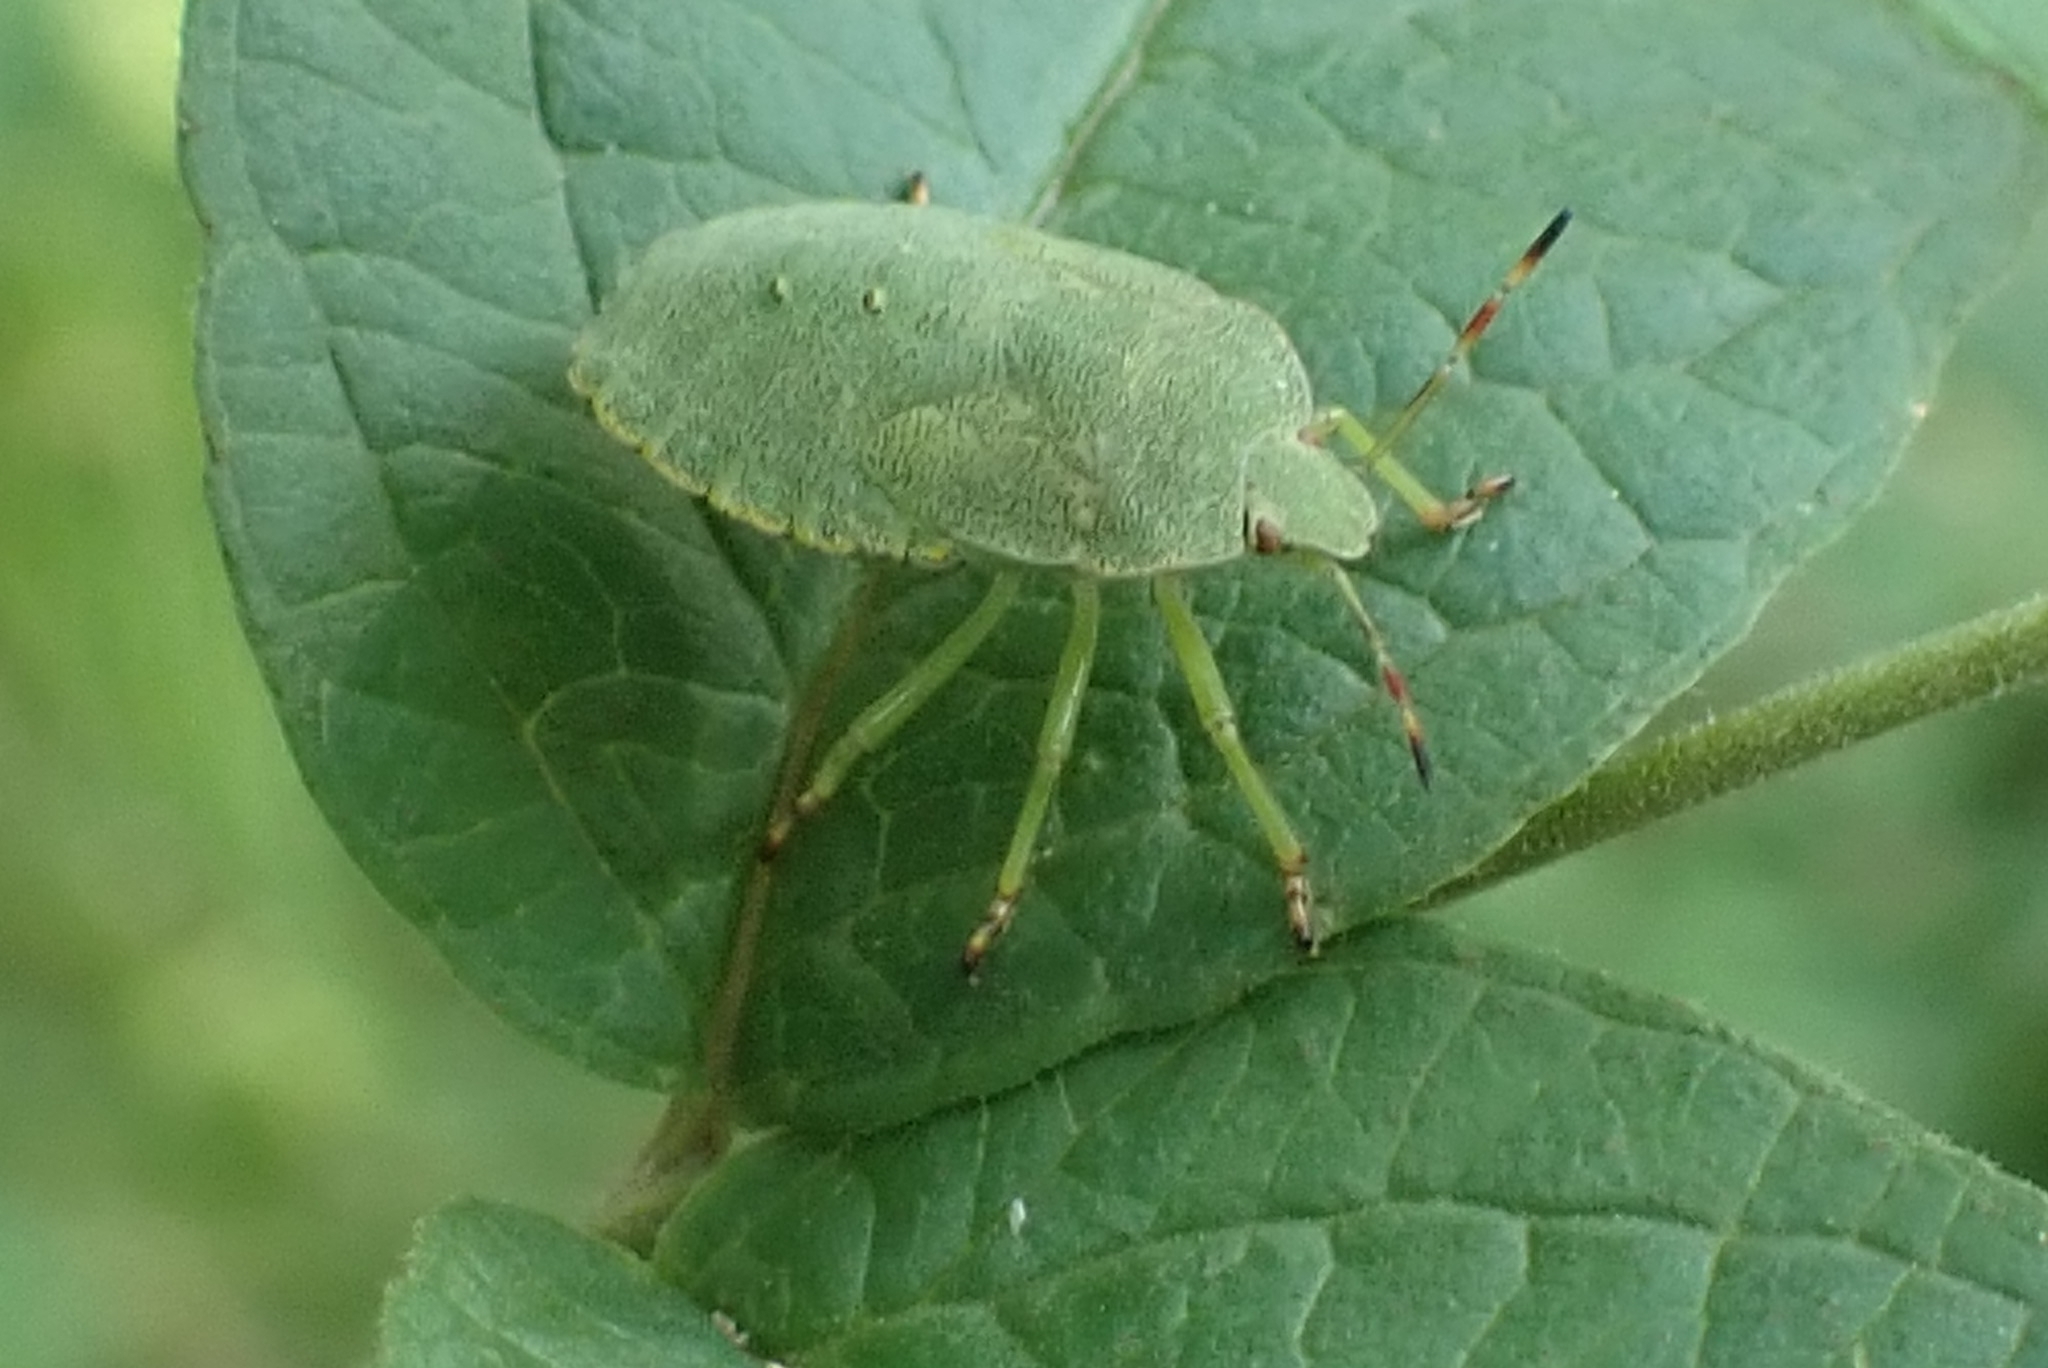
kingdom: Animalia
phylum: Arthropoda
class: Insecta
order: Hemiptera
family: Pentatomidae
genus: Palomena
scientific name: Palomena prasina
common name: Green shieldbug
